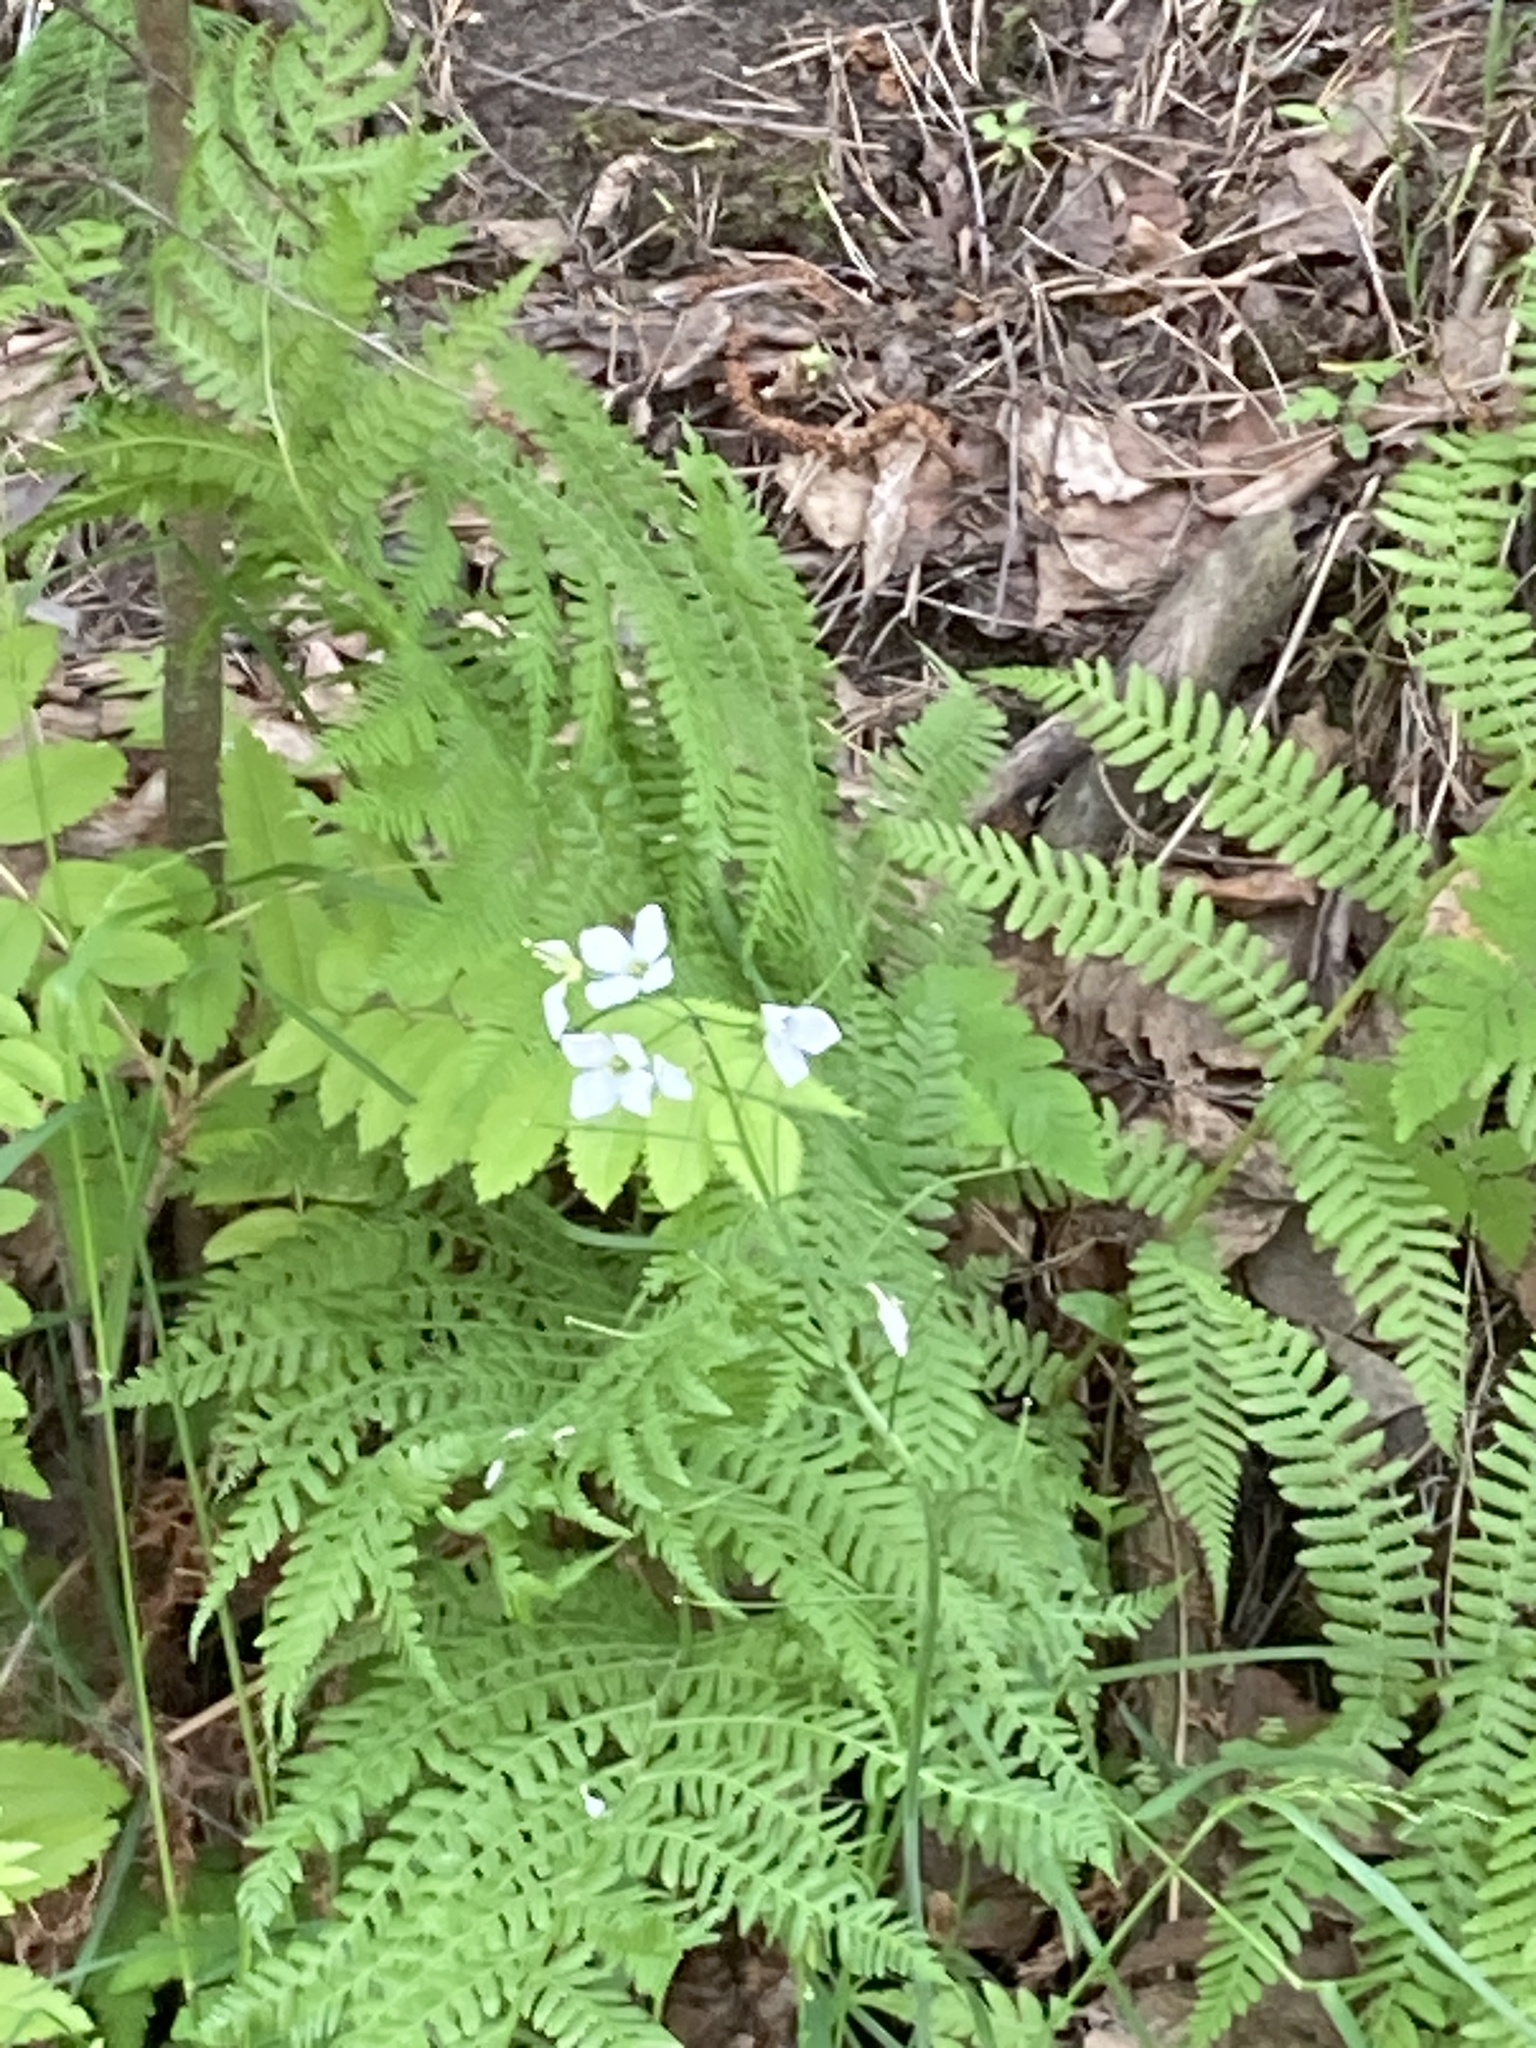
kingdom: Plantae
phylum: Tracheophyta
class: Magnoliopsida
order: Brassicales
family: Brassicaceae
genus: Cardamine
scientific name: Cardamine dentata
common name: Toothed bittercress
